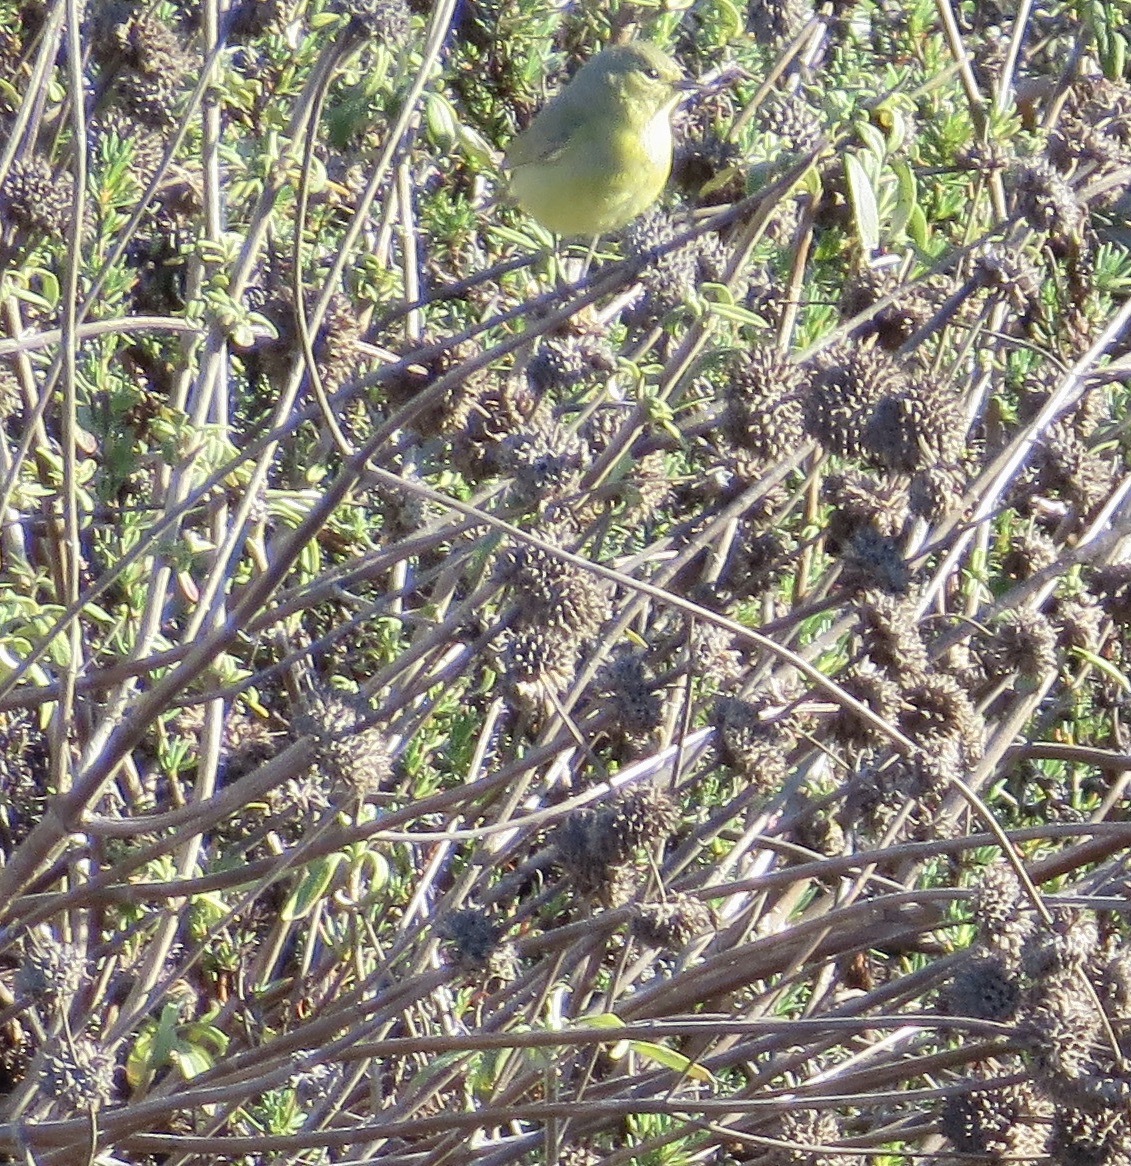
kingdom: Animalia
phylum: Chordata
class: Aves
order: Passeriformes
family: Parulidae
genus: Leiothlypis
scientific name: Leiothlypis celata
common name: Orange-crowned warbler
